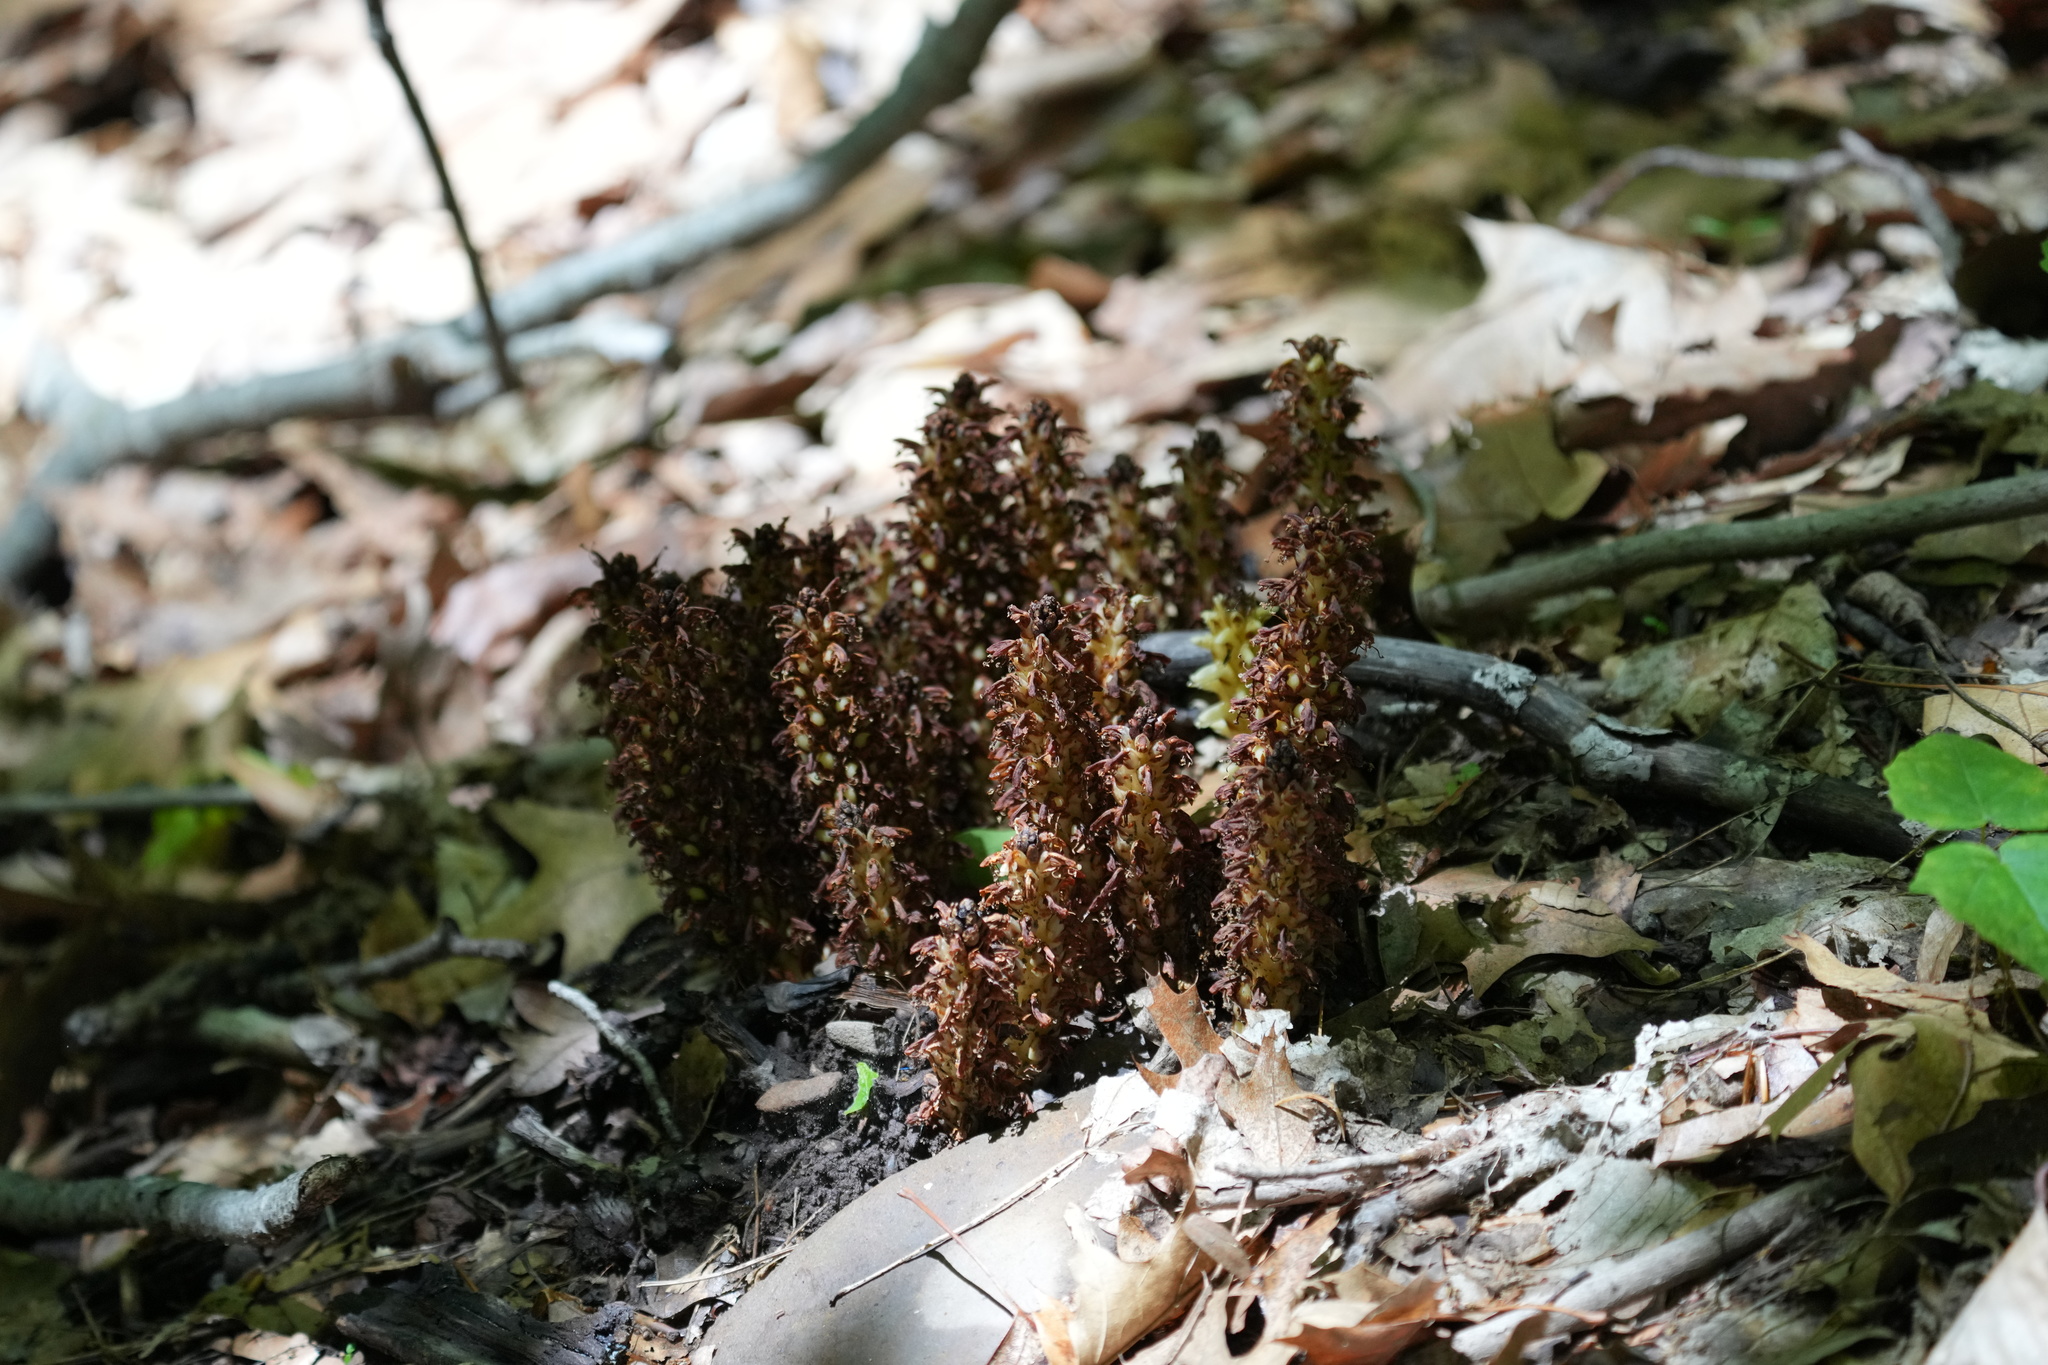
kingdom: Plantae
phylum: Tracheophyta
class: Magnoliopsida
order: Lamiales
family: Orobanchaceae
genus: Conopholis
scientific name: Conopholis americana
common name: American cancer-root
